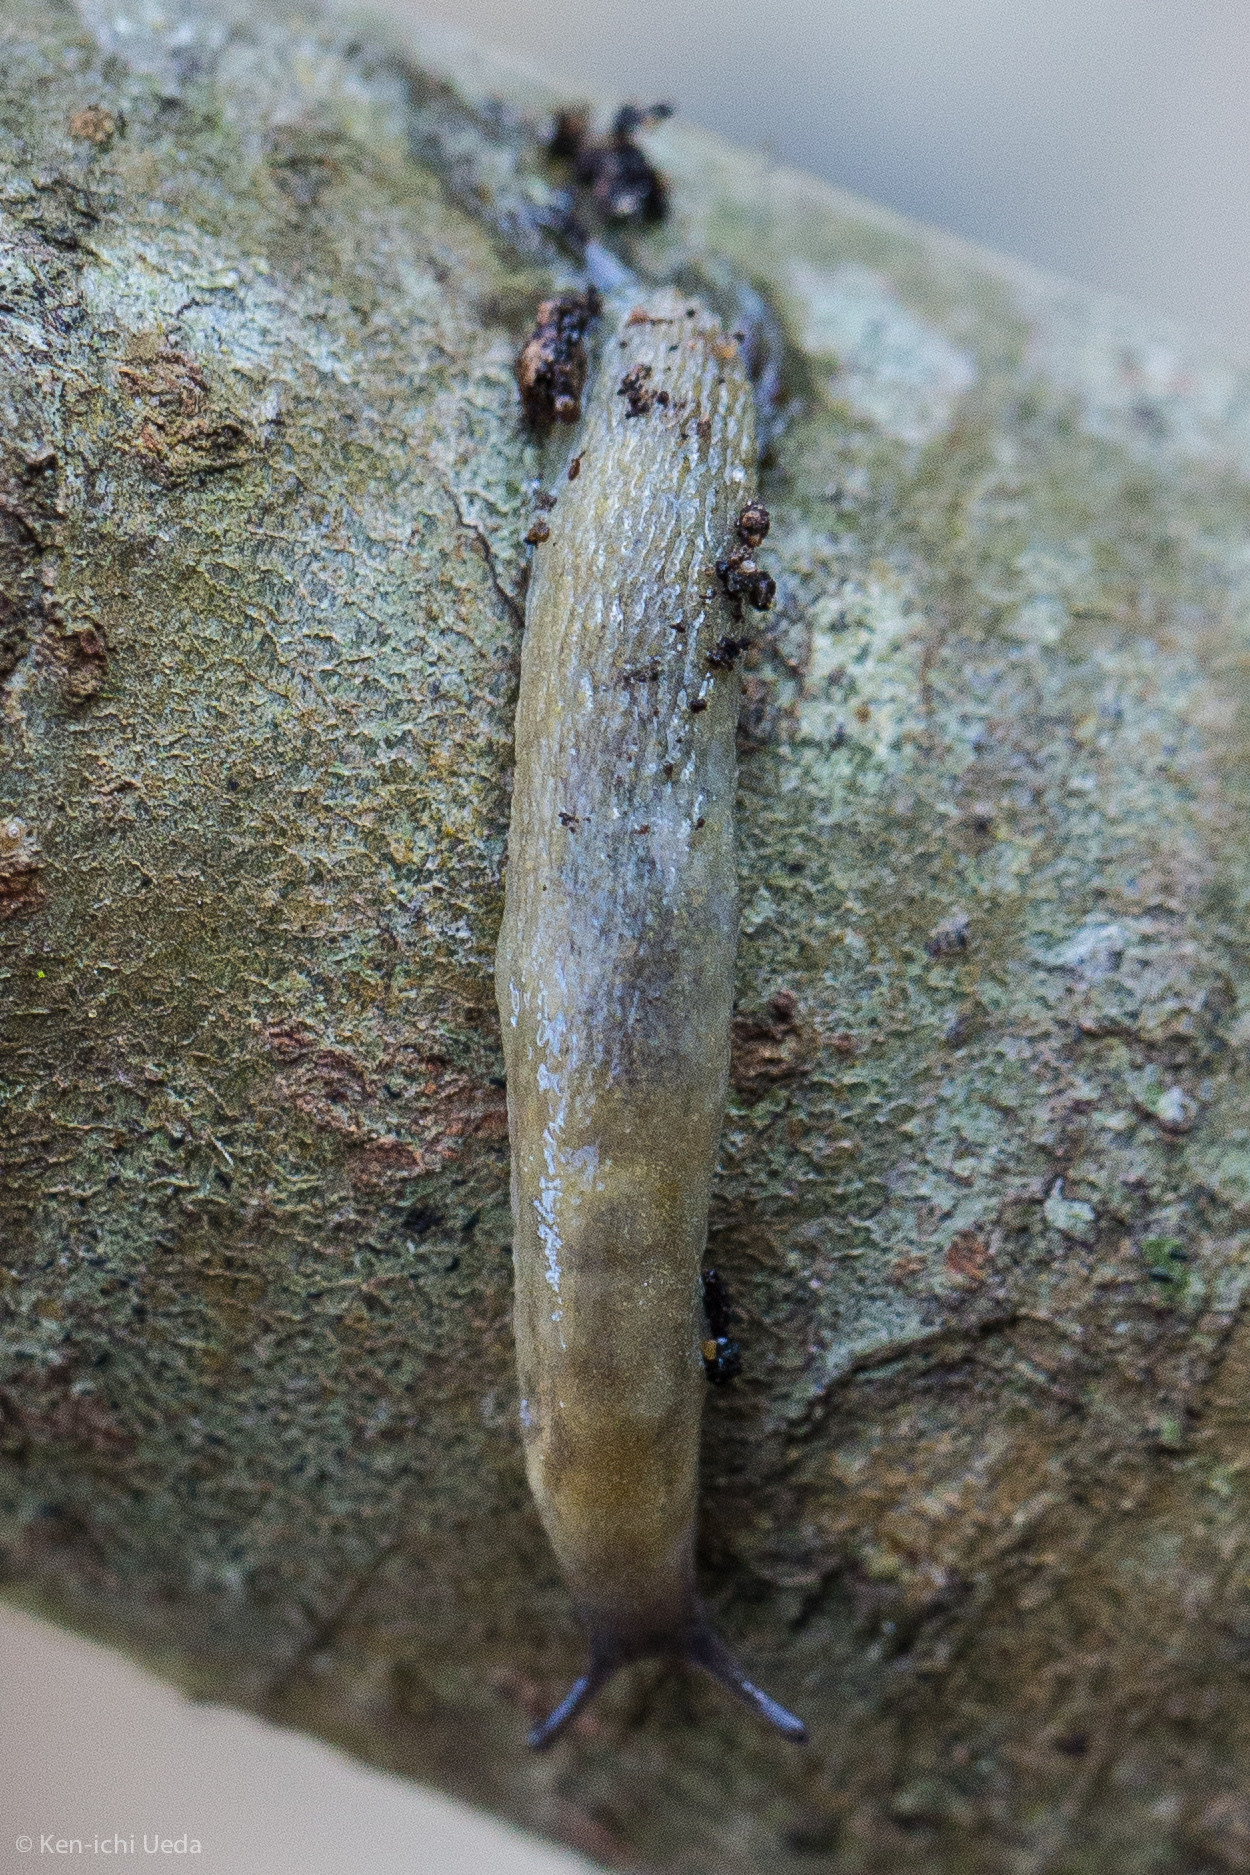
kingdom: Animalia
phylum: Mollusca
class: Gastropoda
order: Stylommatophora
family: Arionidae
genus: Arion
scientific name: Arion intermedius
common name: Hedgehog slug
